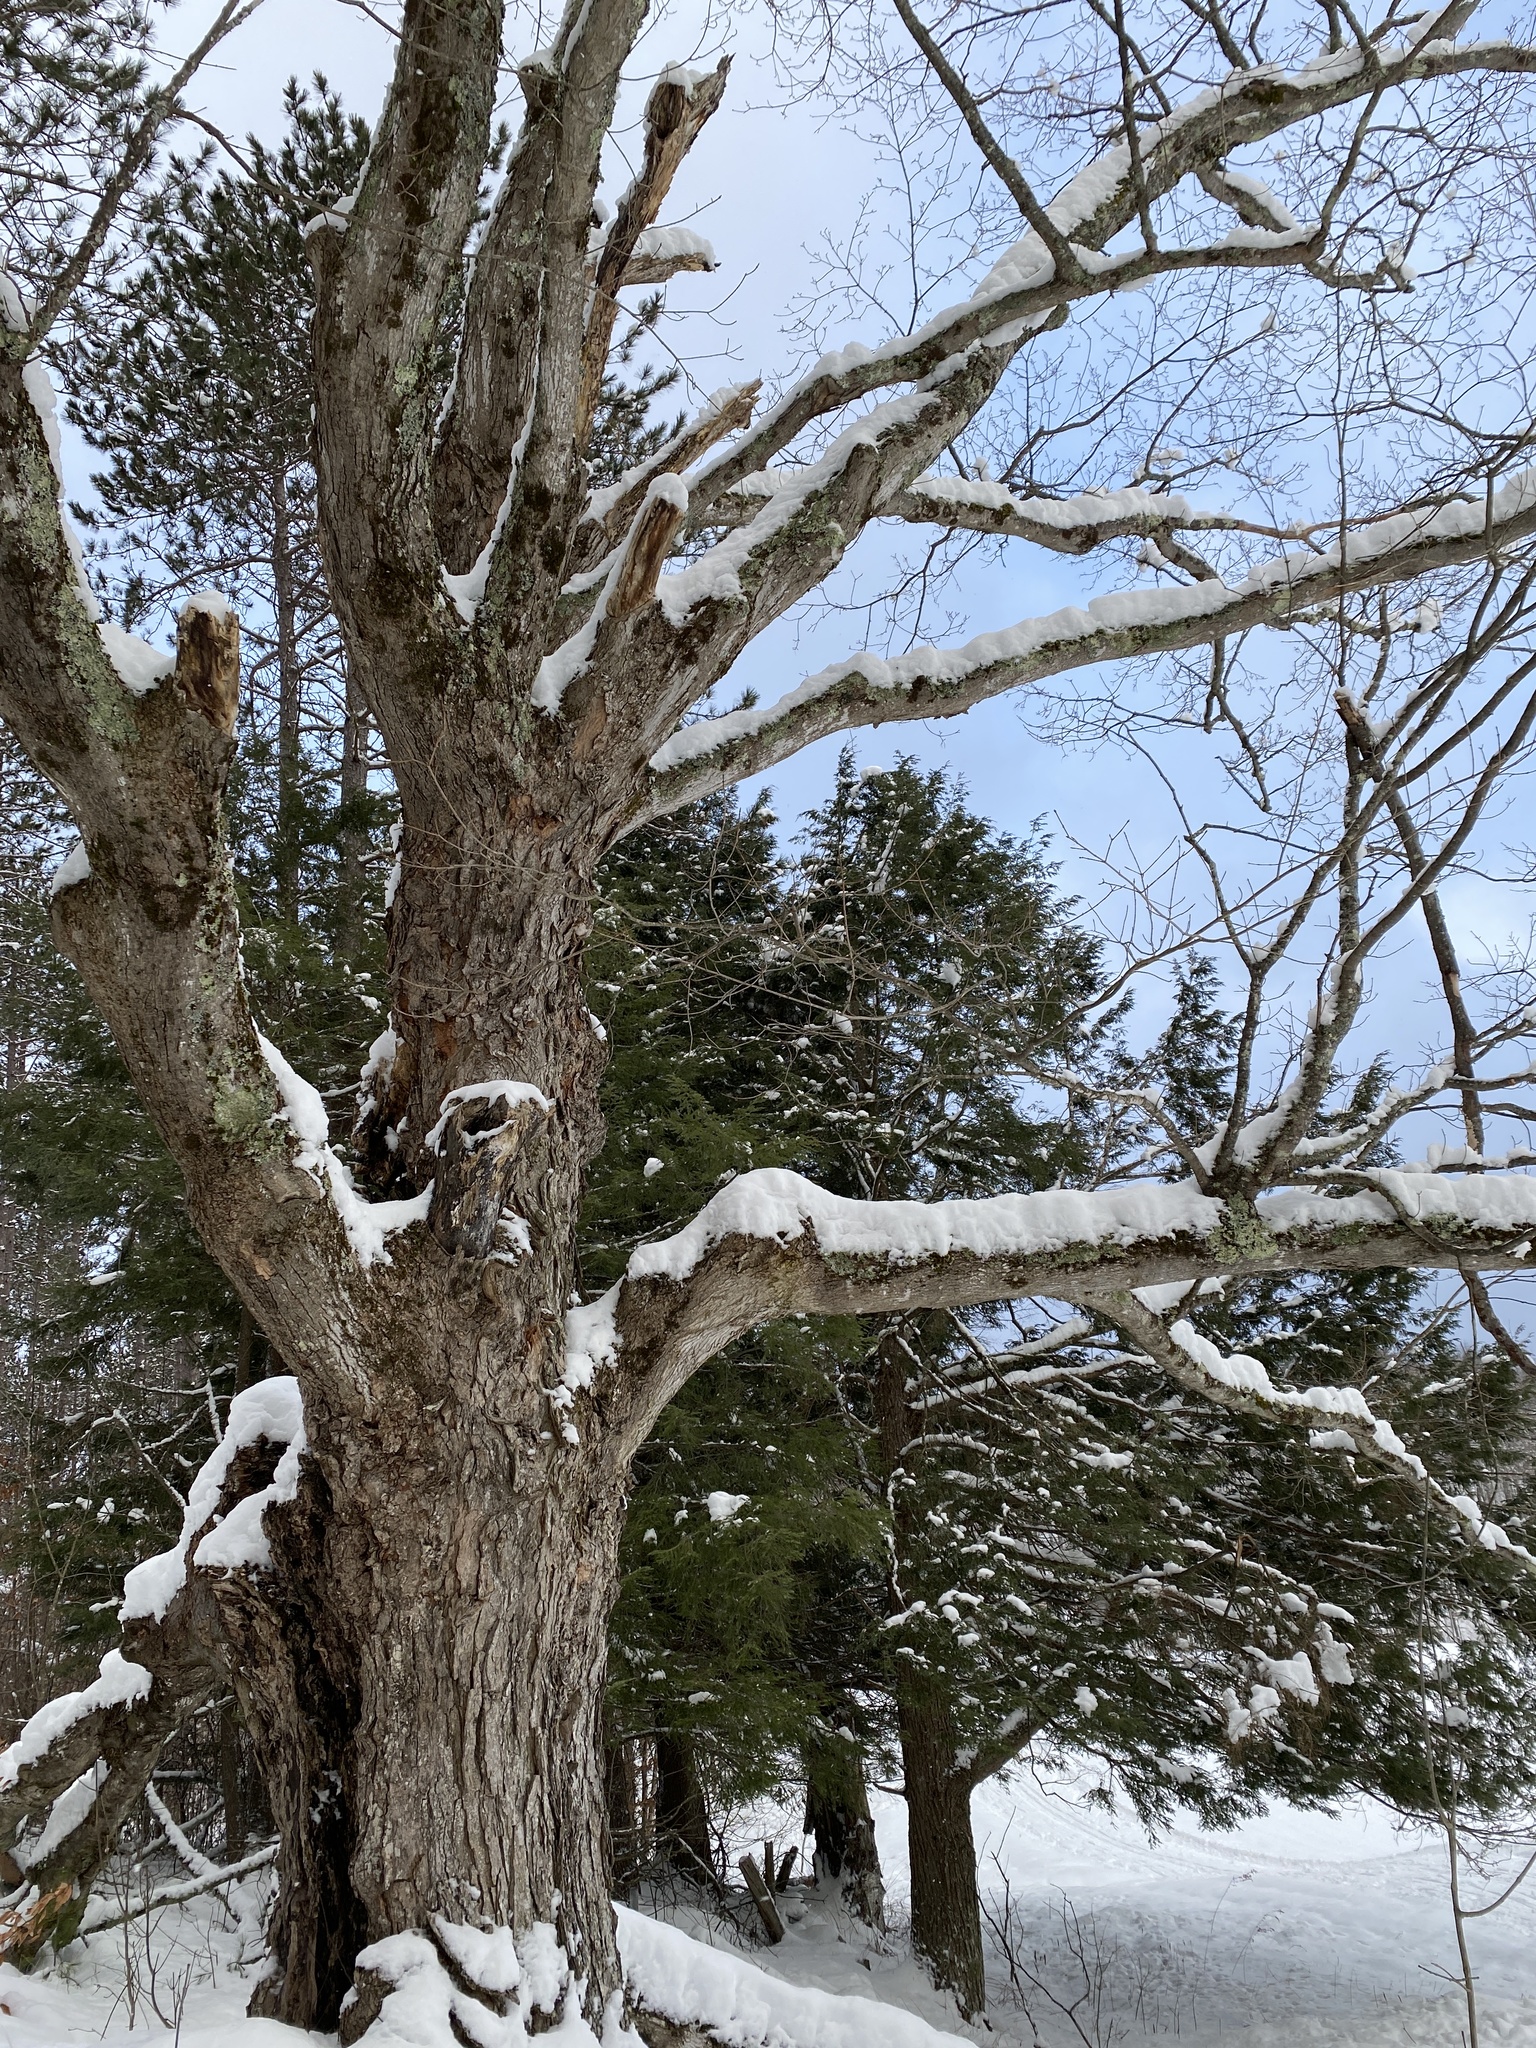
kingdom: Plantae
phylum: Tracheophyta
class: Magnoliopsida
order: Sapindales
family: Sapindaceae
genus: Acer
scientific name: Acer saccharum
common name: Sugar maple
